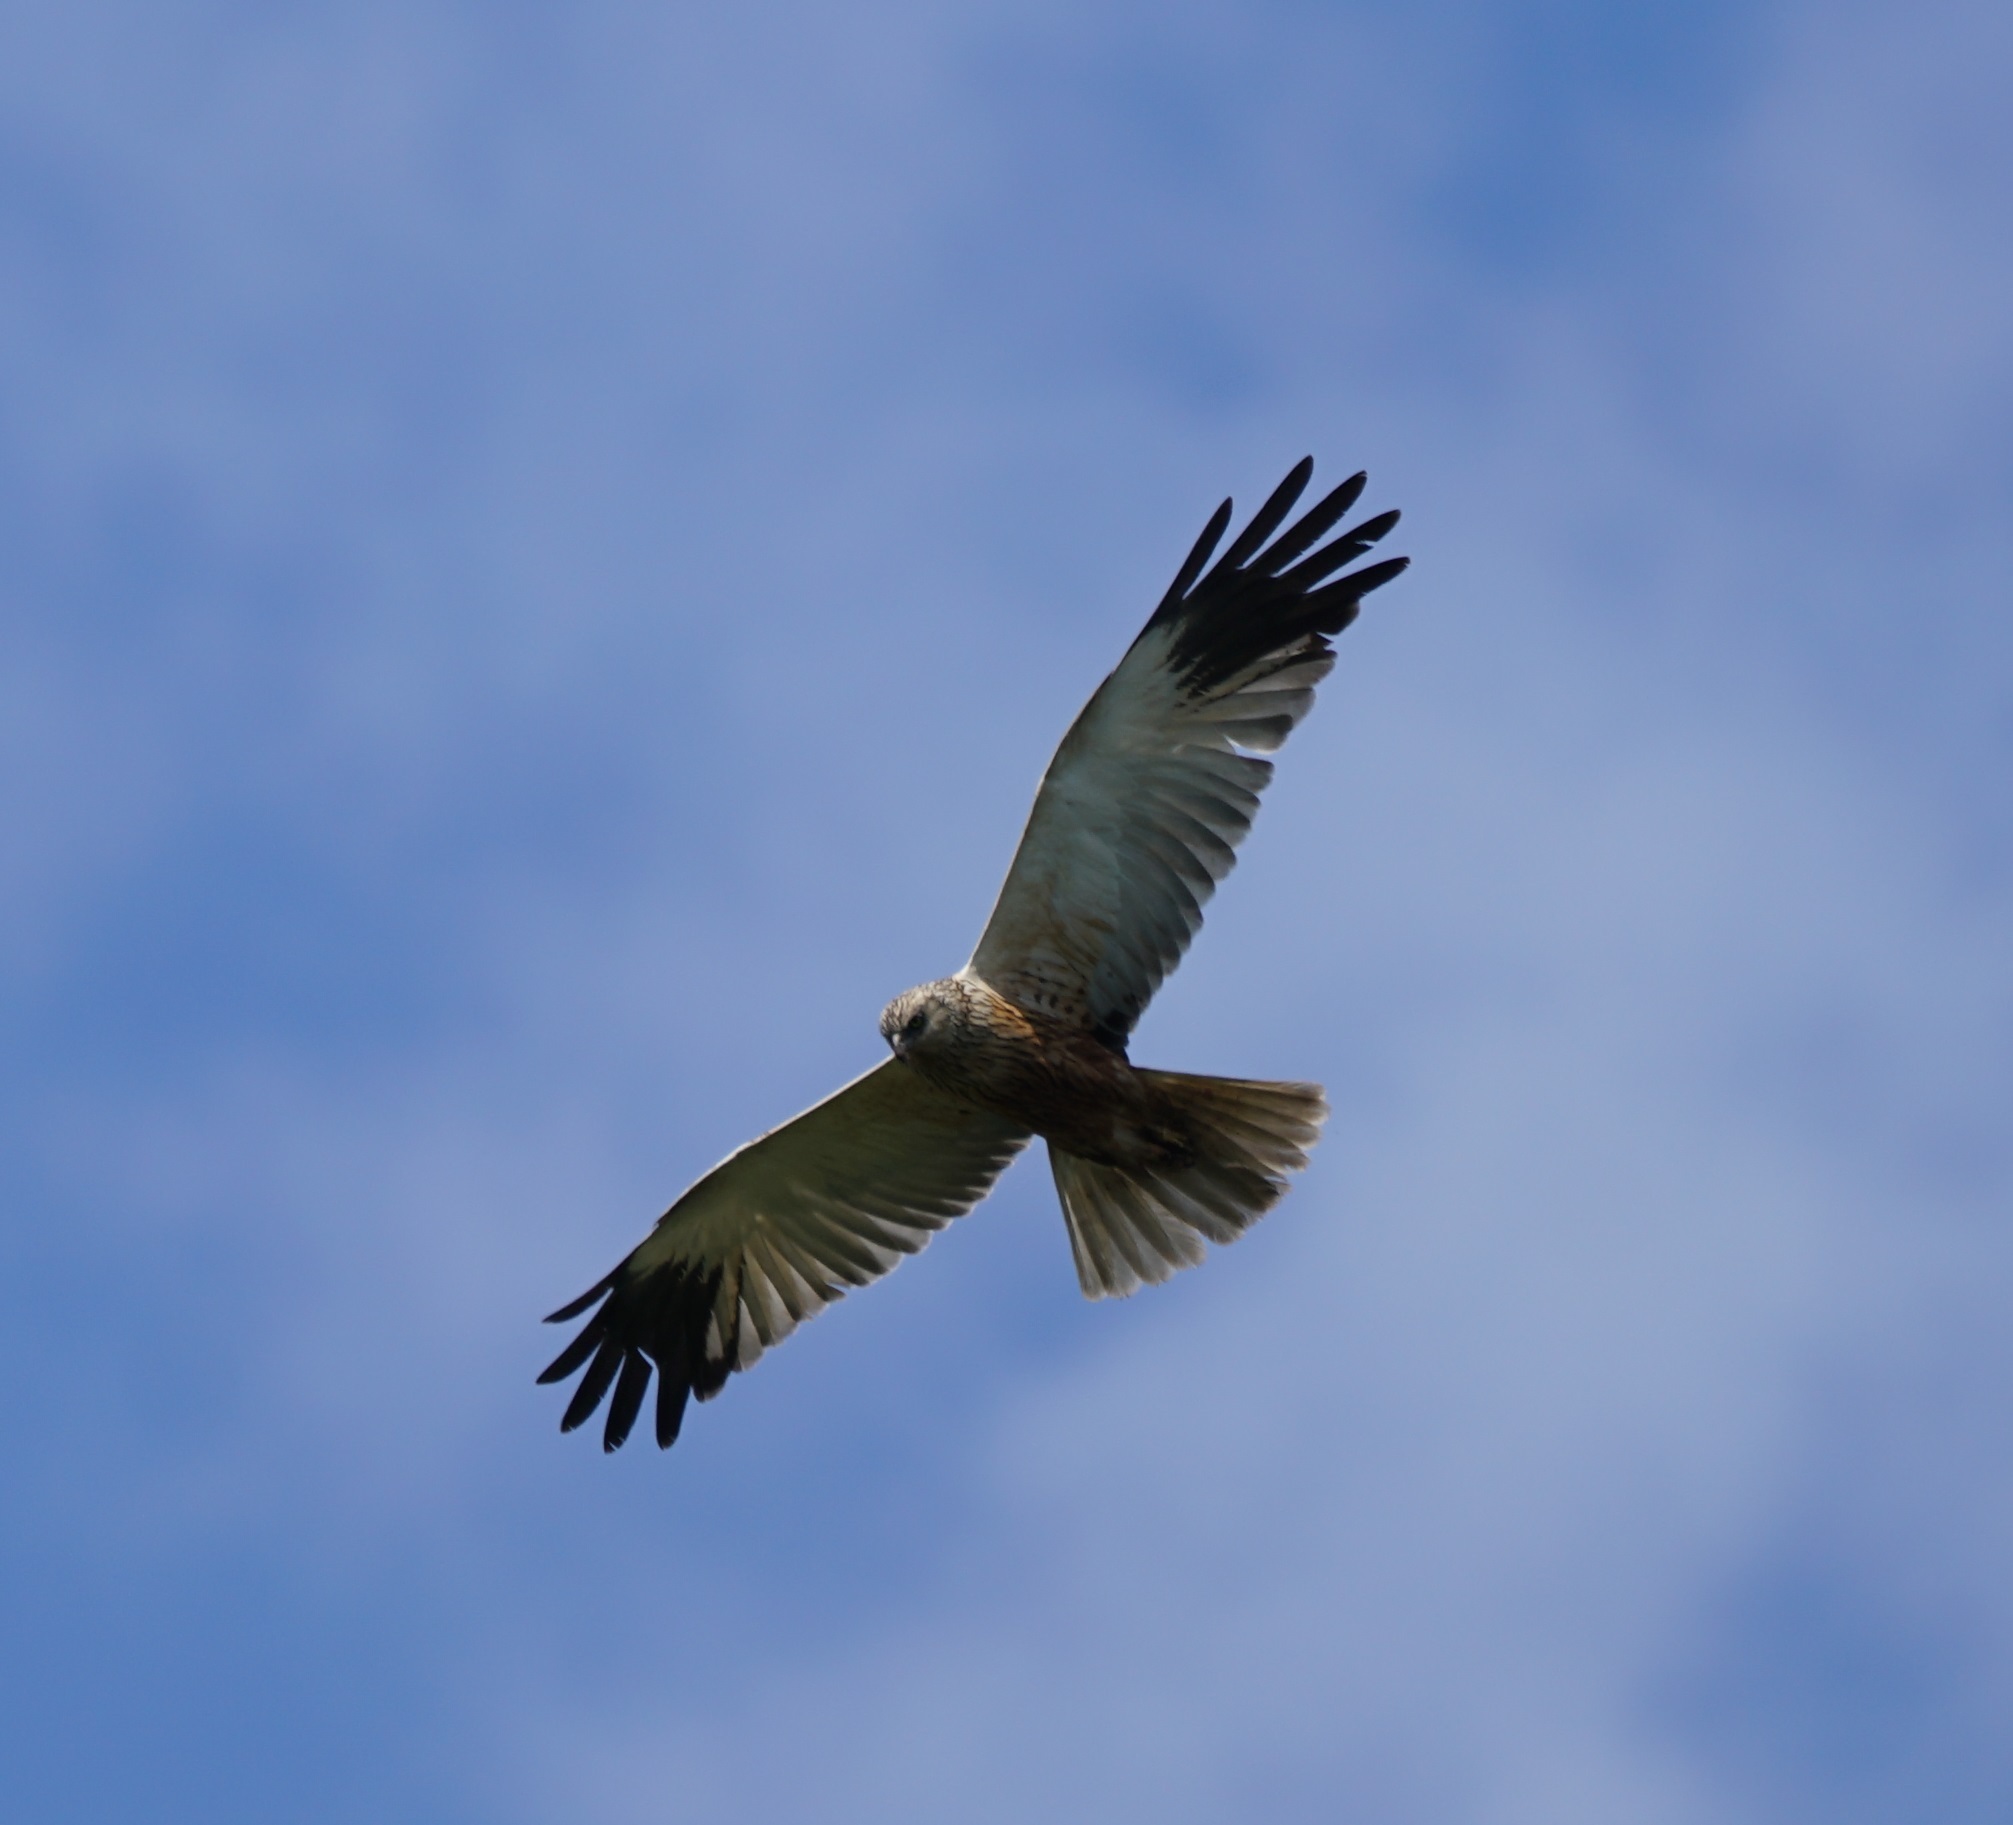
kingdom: Animalia
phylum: Chordata
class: Aves
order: Accipitriformes
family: Accipitridae
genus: Circus
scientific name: Circus aeruginosus
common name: Western marsh harrier
